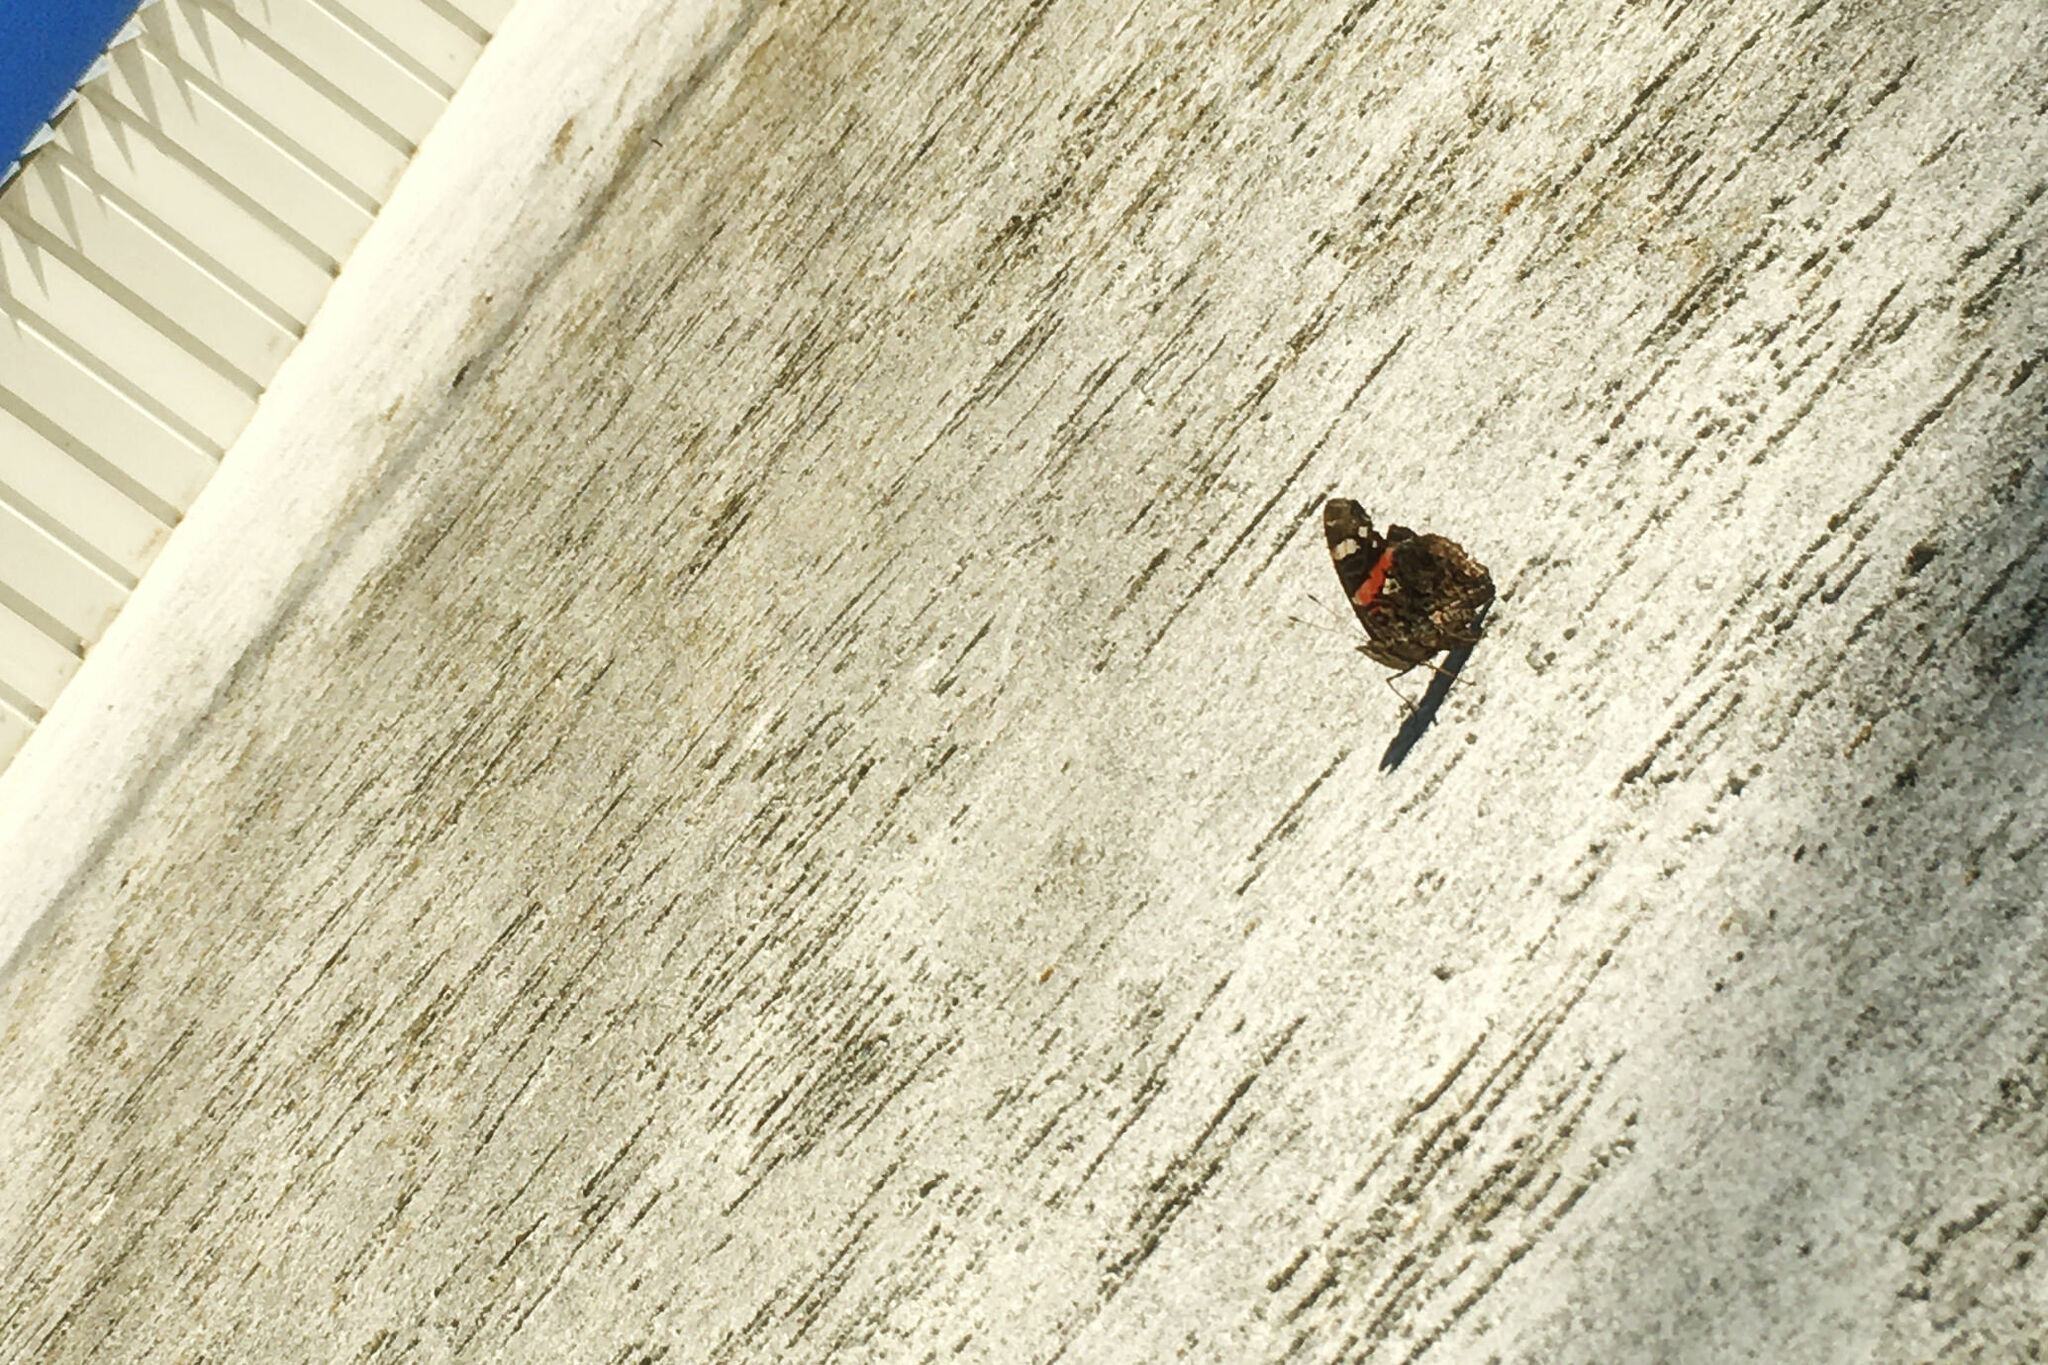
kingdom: Animalia
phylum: Arthropoda
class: Insecta
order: Lepidoptera
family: Nymphalidae
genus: Vanessa
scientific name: Vanessa atalanta
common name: Red admiral
